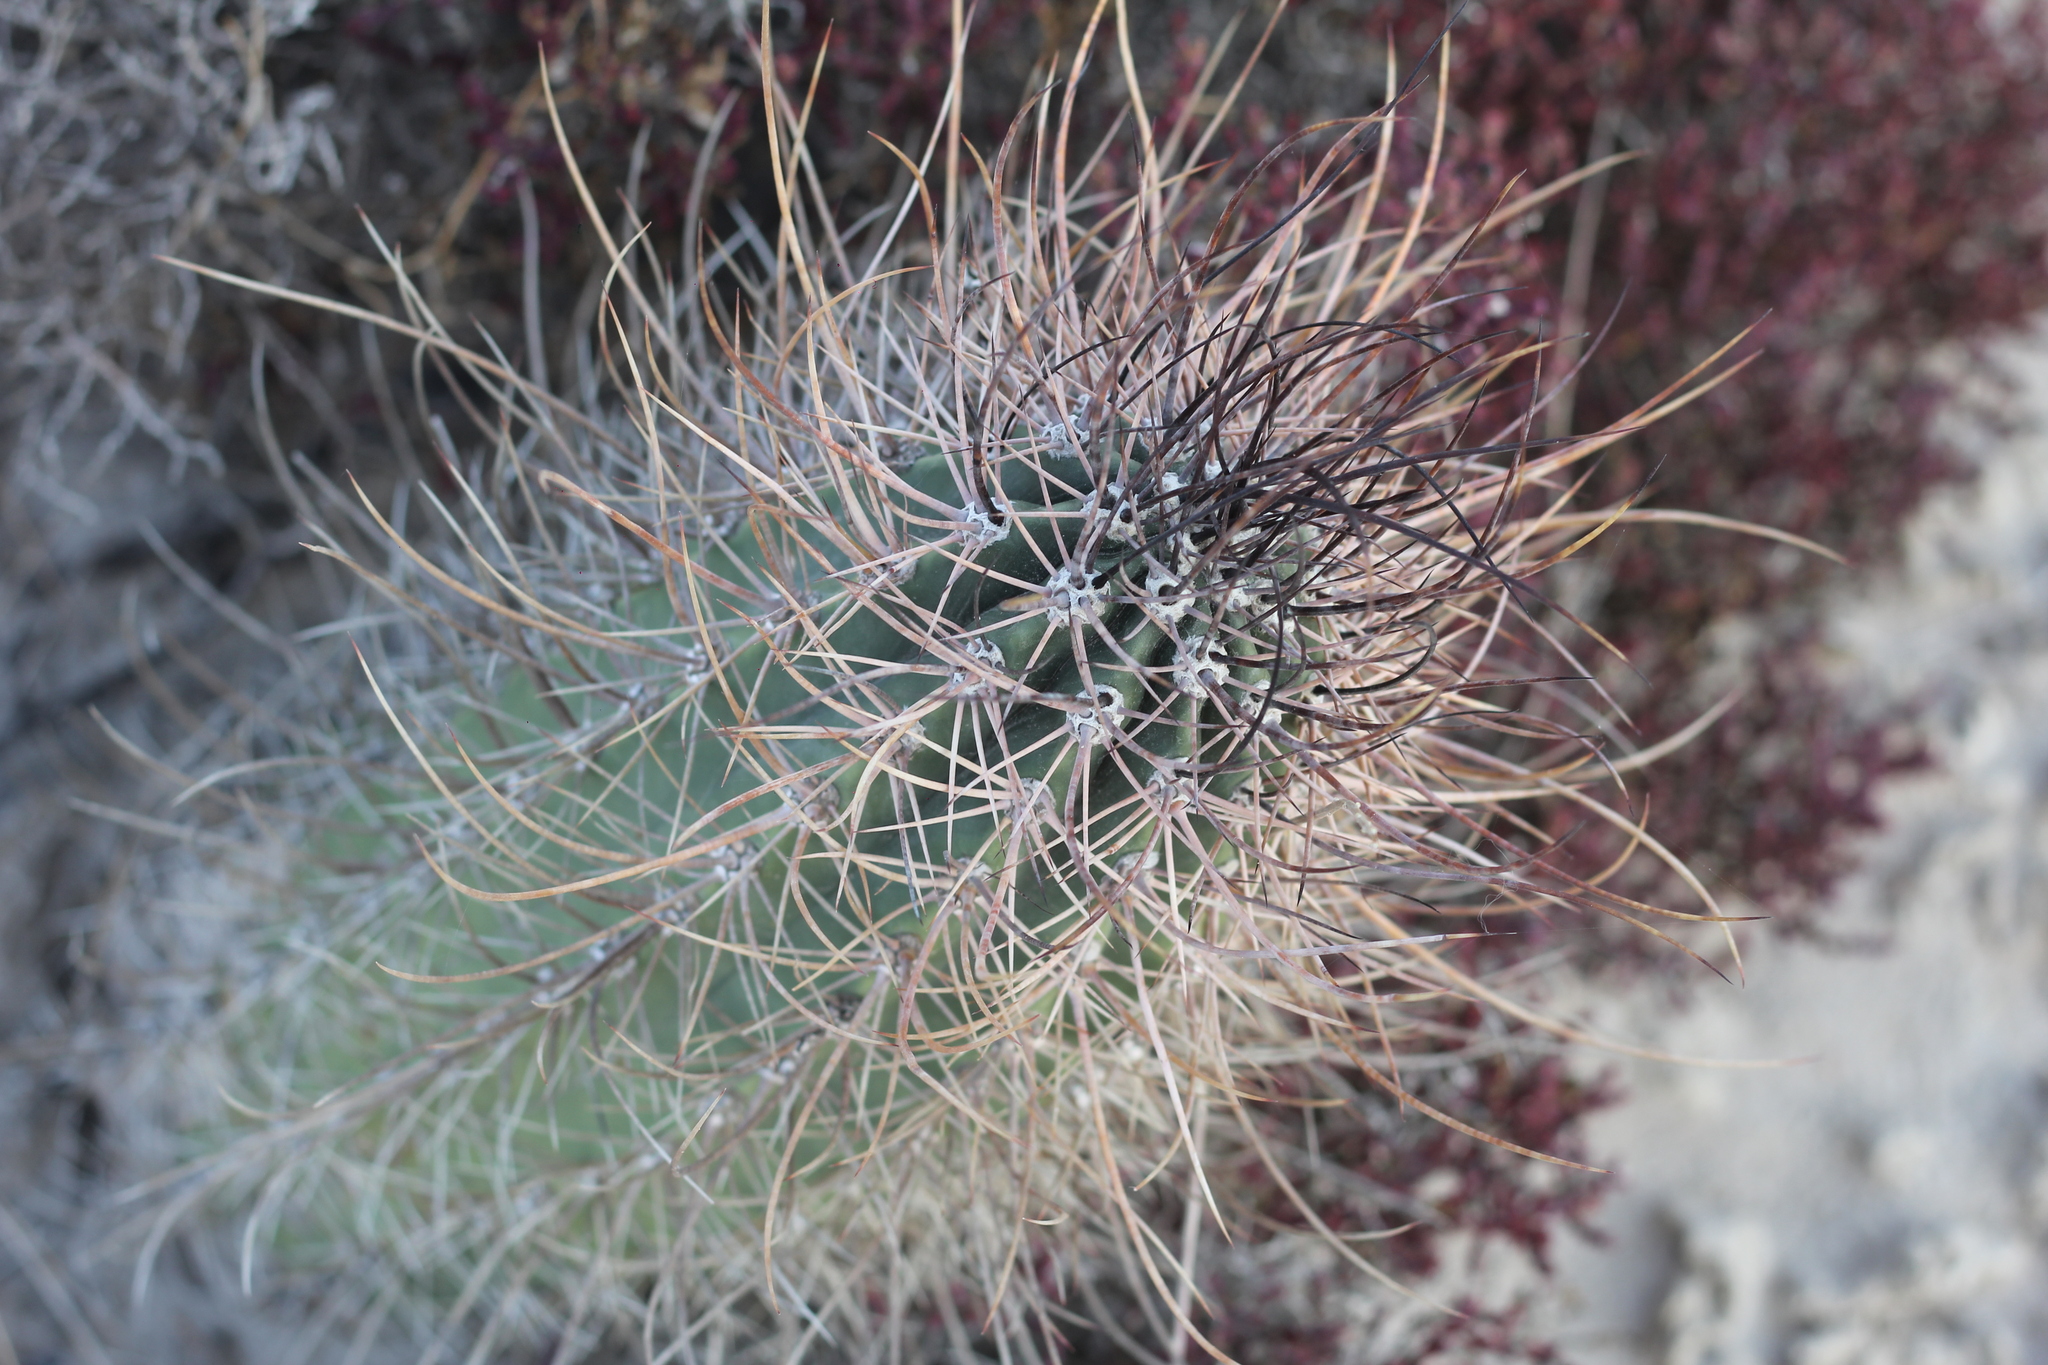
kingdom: Plantae
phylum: Tracheophyta
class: Magnoliopsida
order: Caryophyllales
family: Cactaceae
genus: Acanthocalycium
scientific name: Acanthocalycium leucanthum
